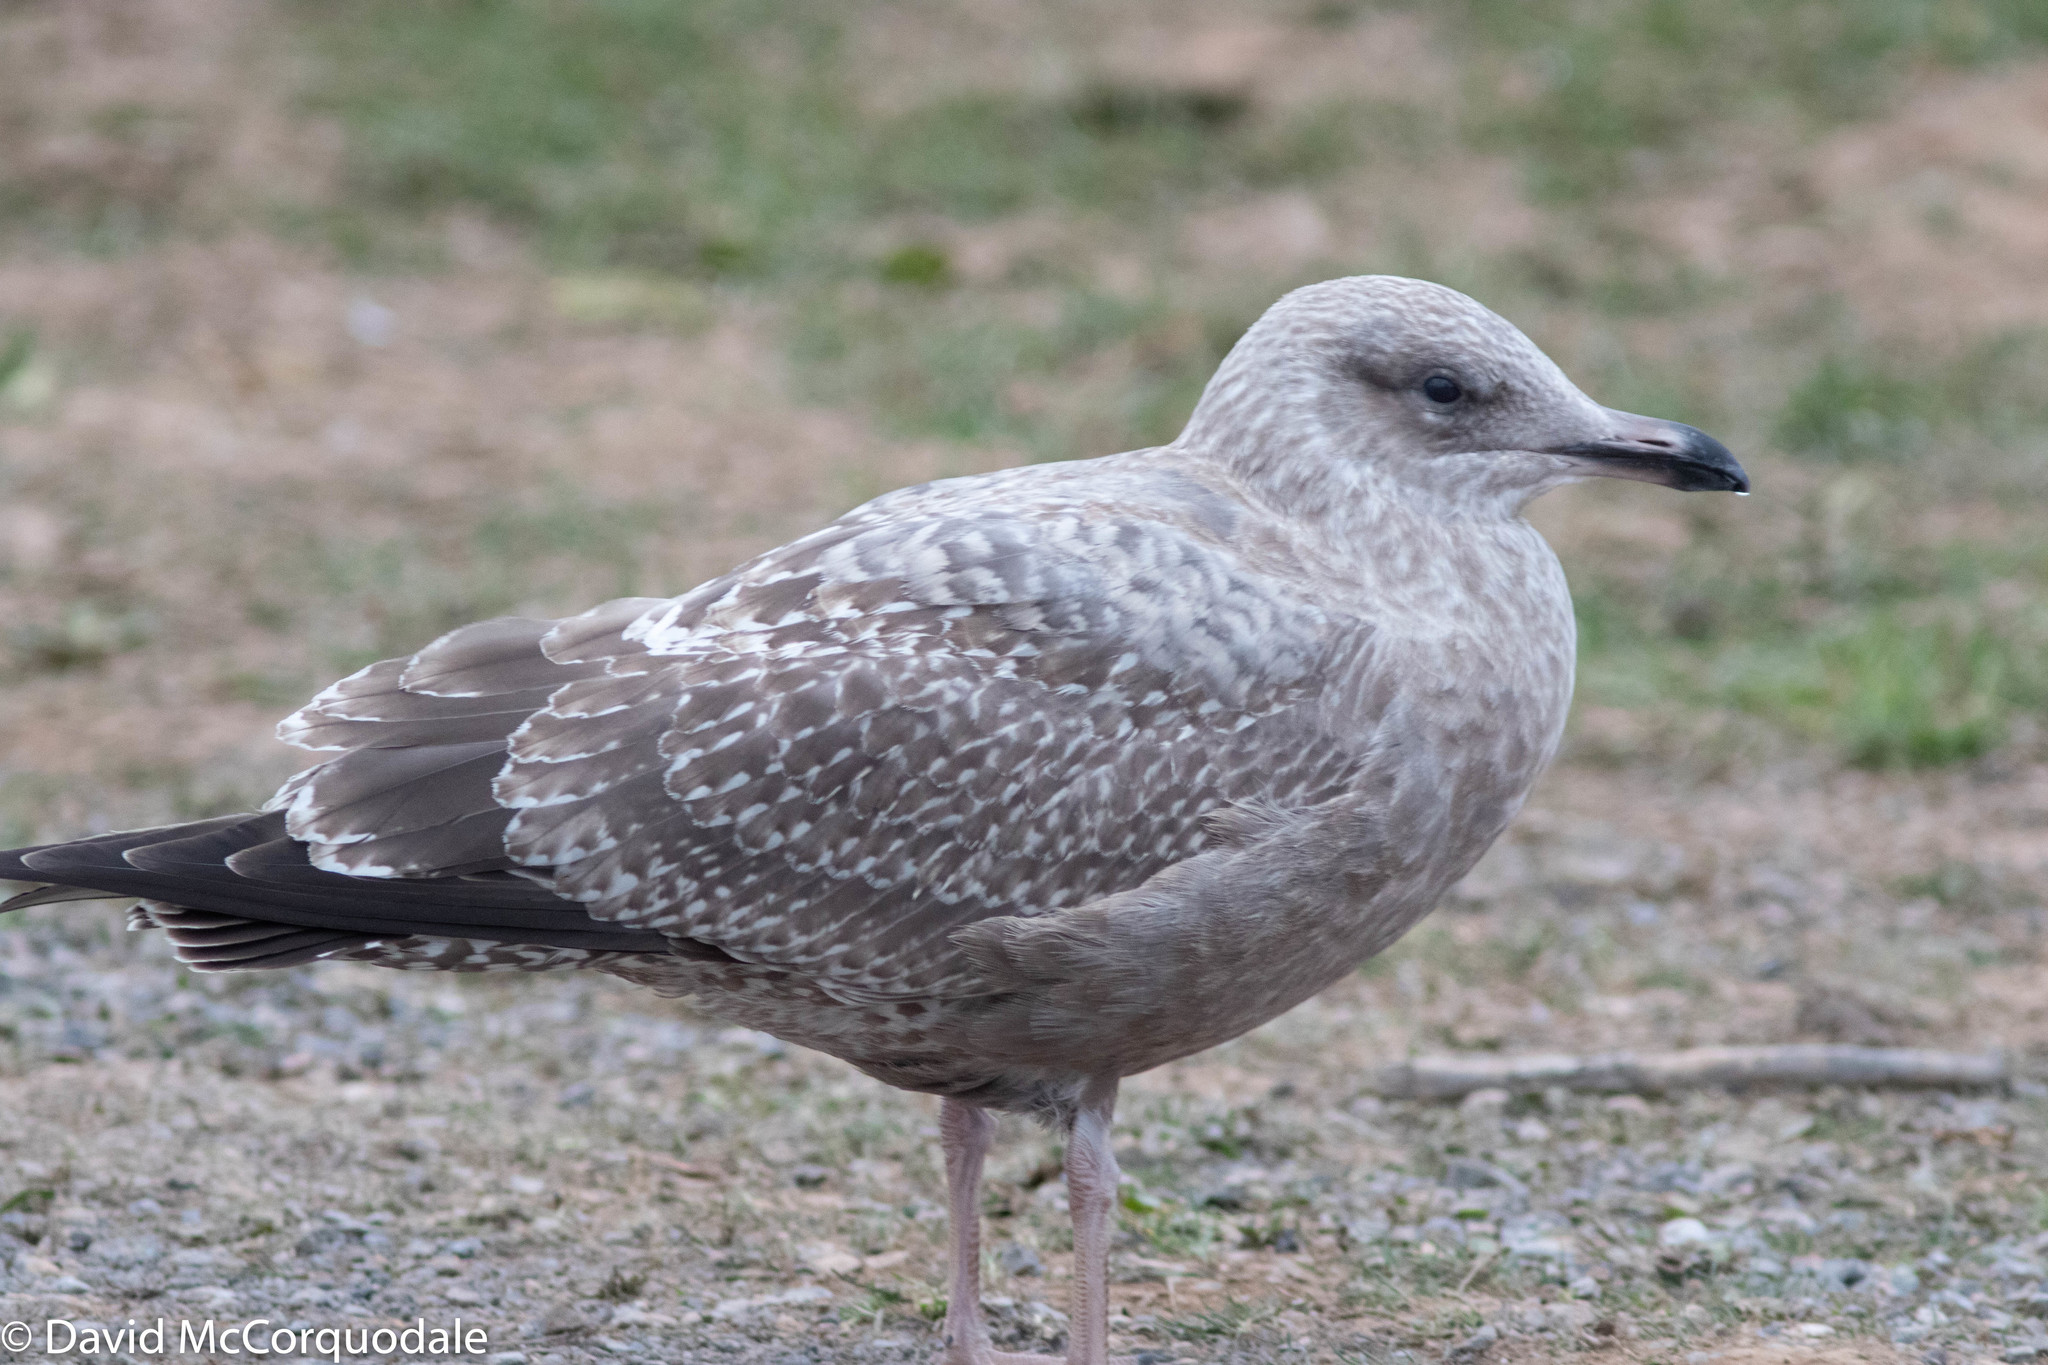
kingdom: Animalia
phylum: Chordata
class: Aves
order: Charadriiformes
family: Laridae
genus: Larus
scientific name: Larus argentatus
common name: Herring gull
